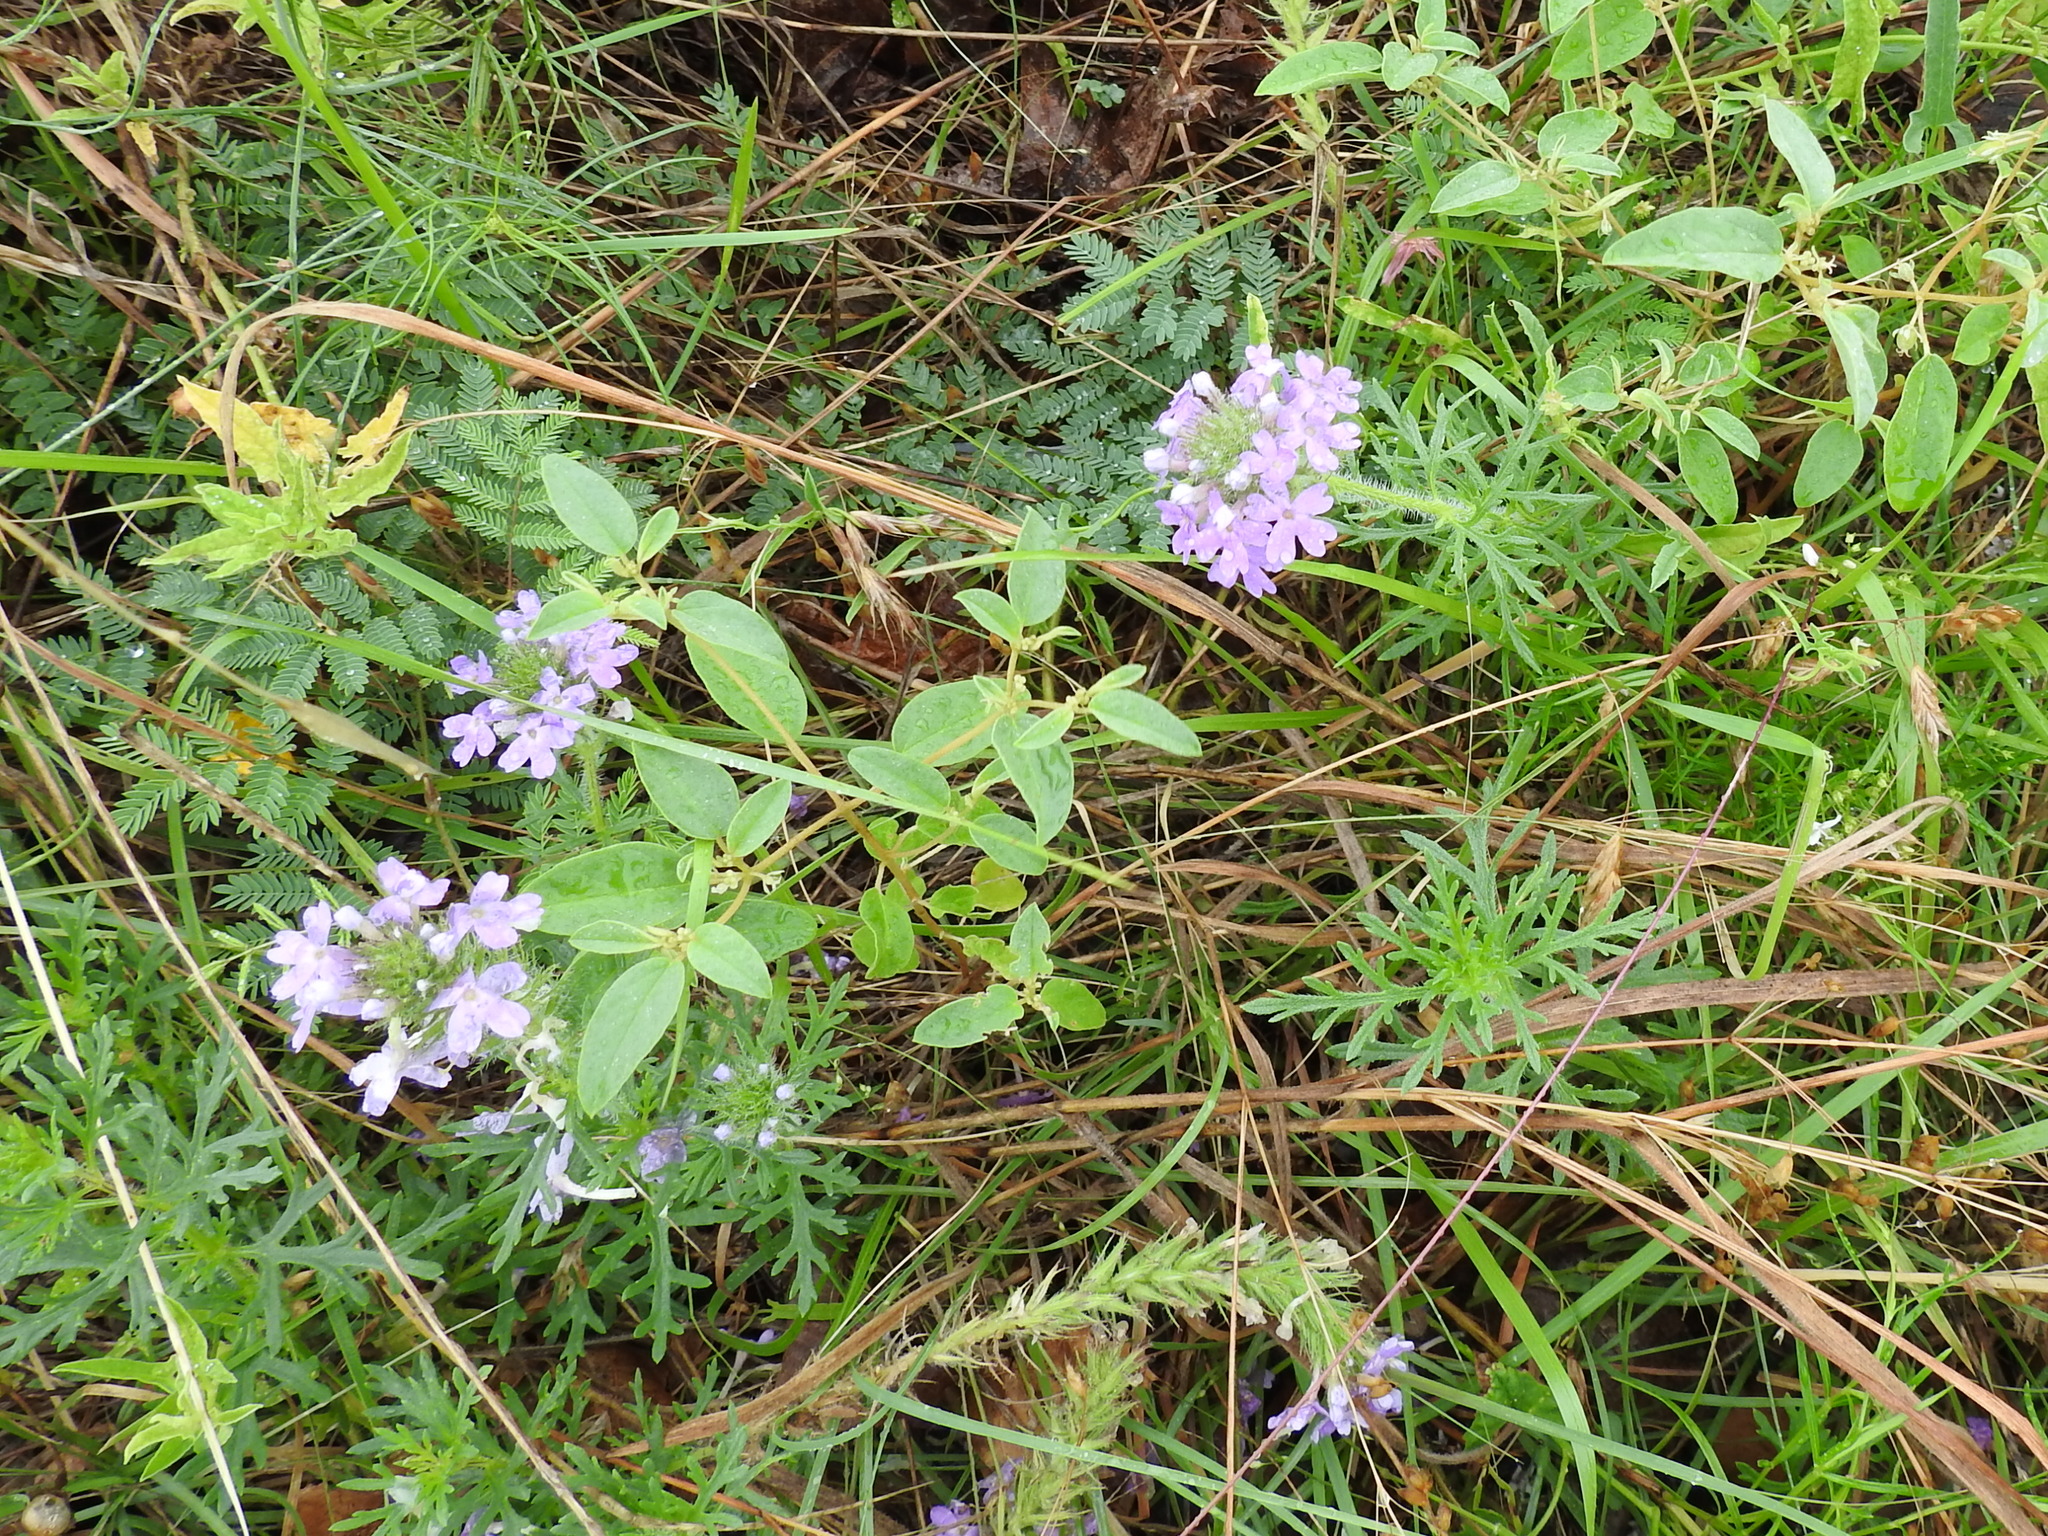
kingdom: Plantae
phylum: Tracheophyta
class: Magnoliopsida
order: Lamiales
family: Verbenaceae
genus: Verbena
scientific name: Verbena bipinnatifida
